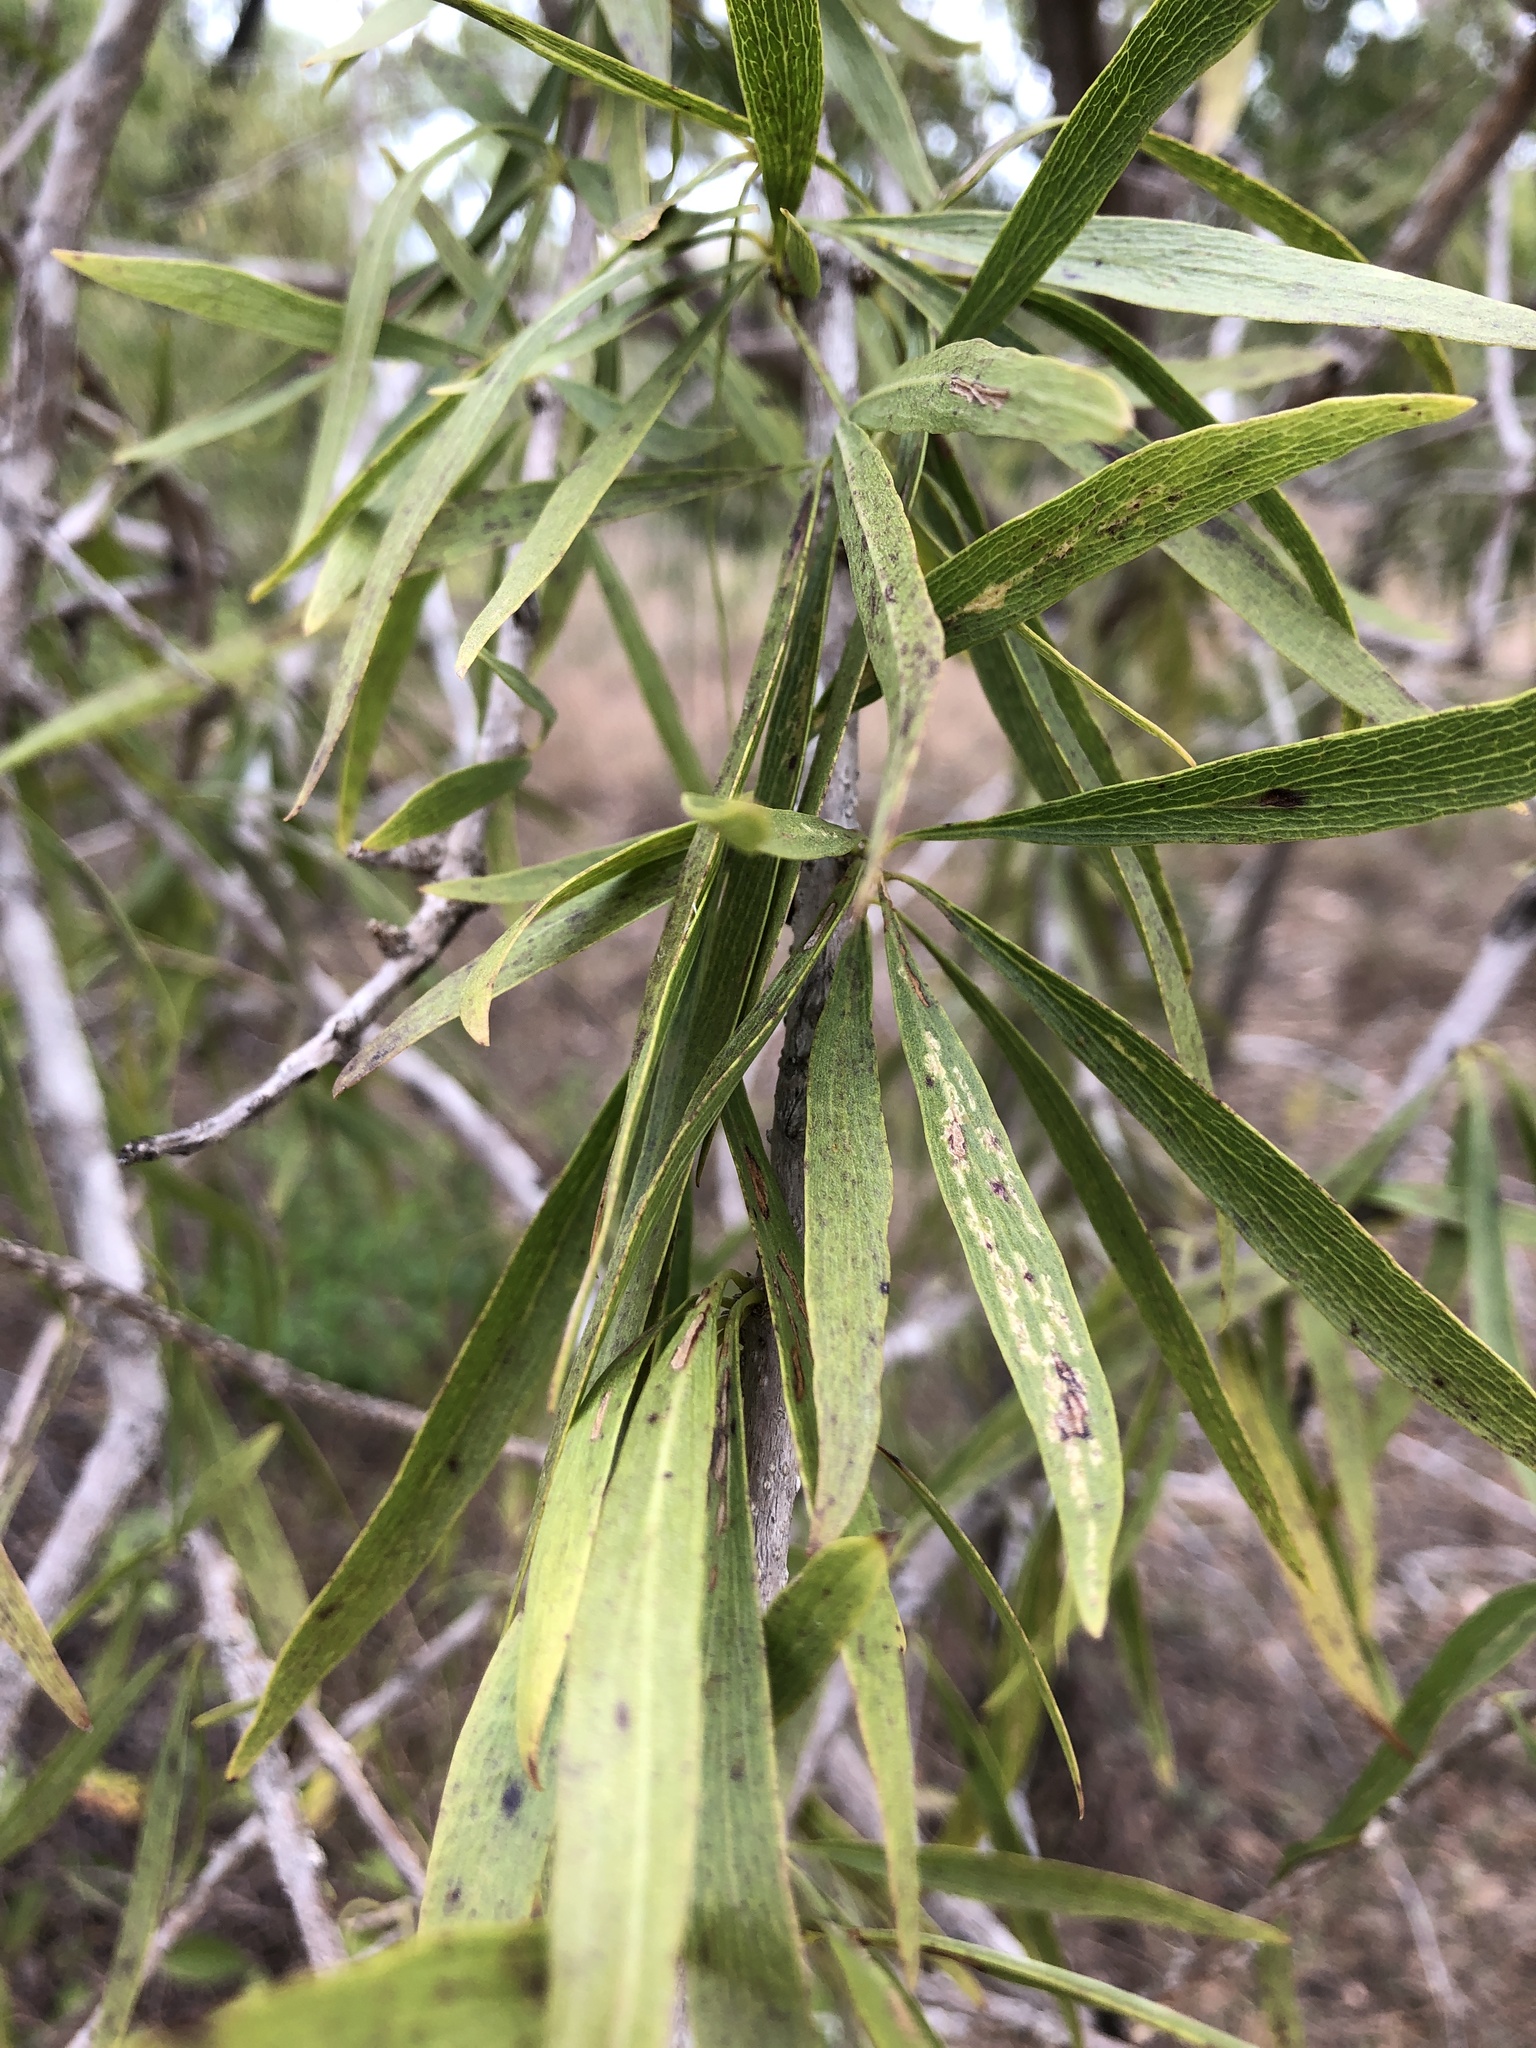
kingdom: Plantae
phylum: Tracheophyta
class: Magnoliopsida
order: Lamiales
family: Bignoniaceae
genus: Dolichandrone
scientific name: Dolichandrone alternifolia
